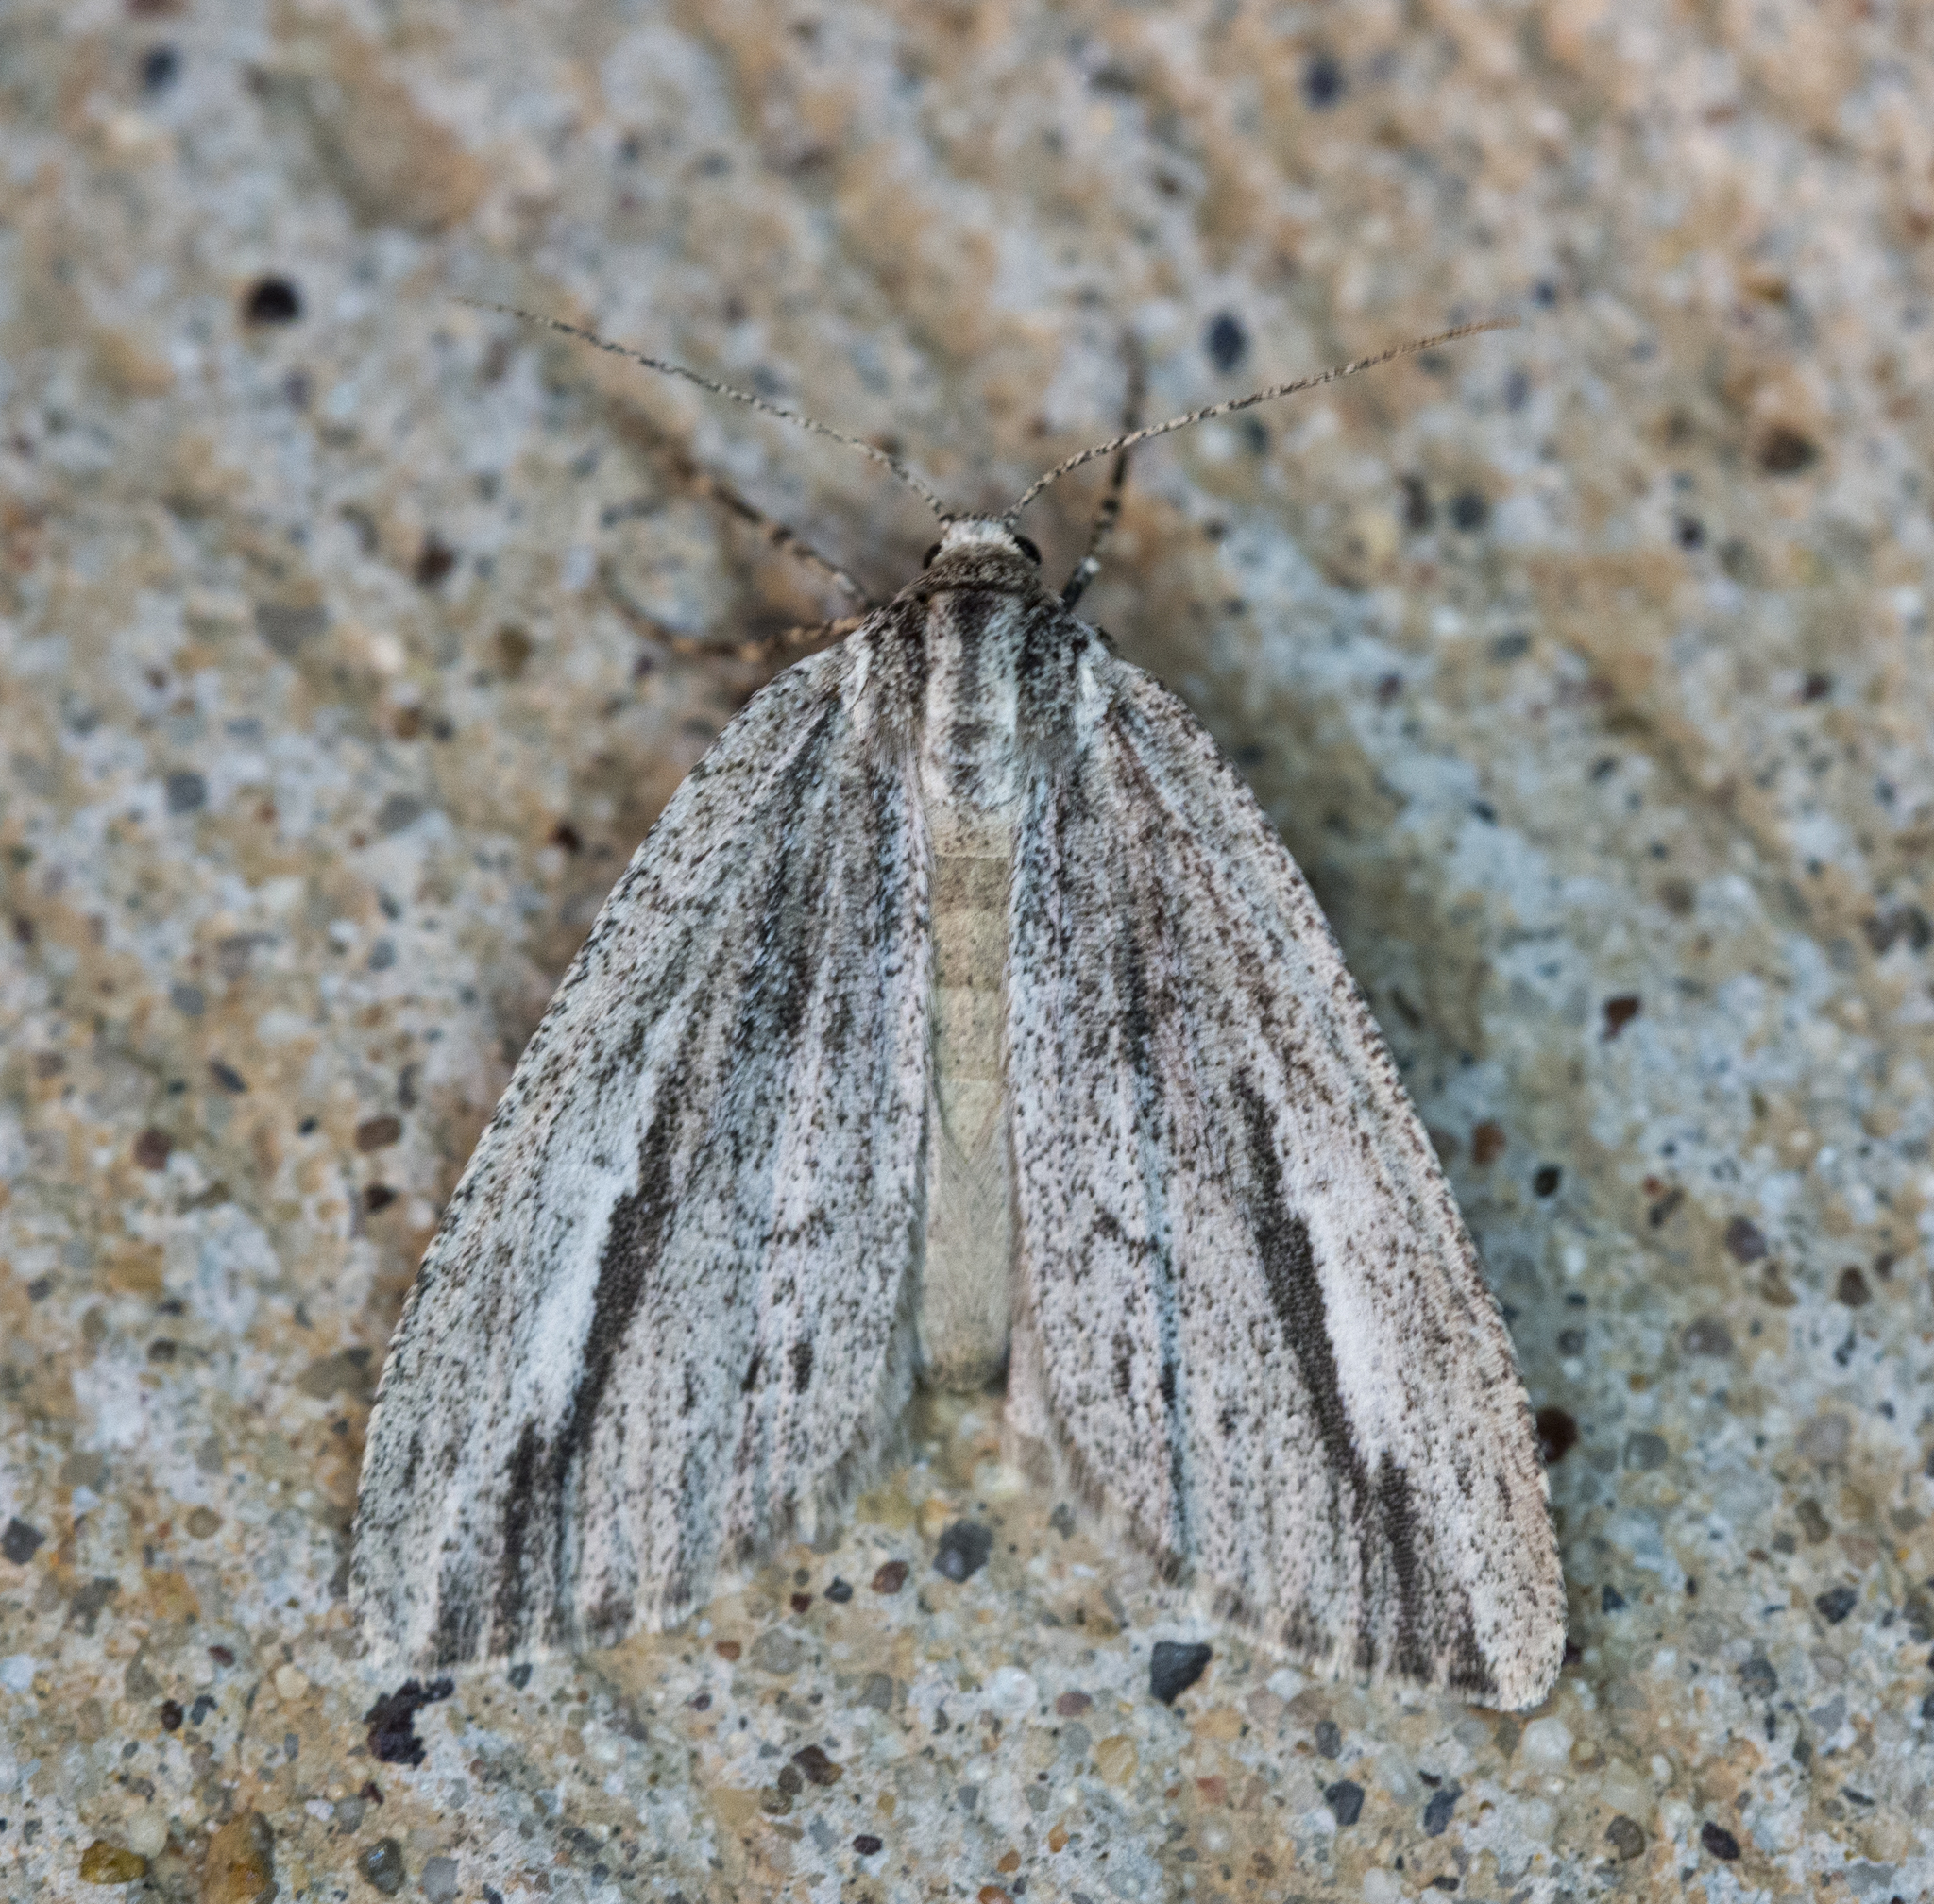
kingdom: Animalia
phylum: Arthropoda
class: Insecta
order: Lepidoptera
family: Geometridae
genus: Carphoides
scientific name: Carphoides incopriarius
